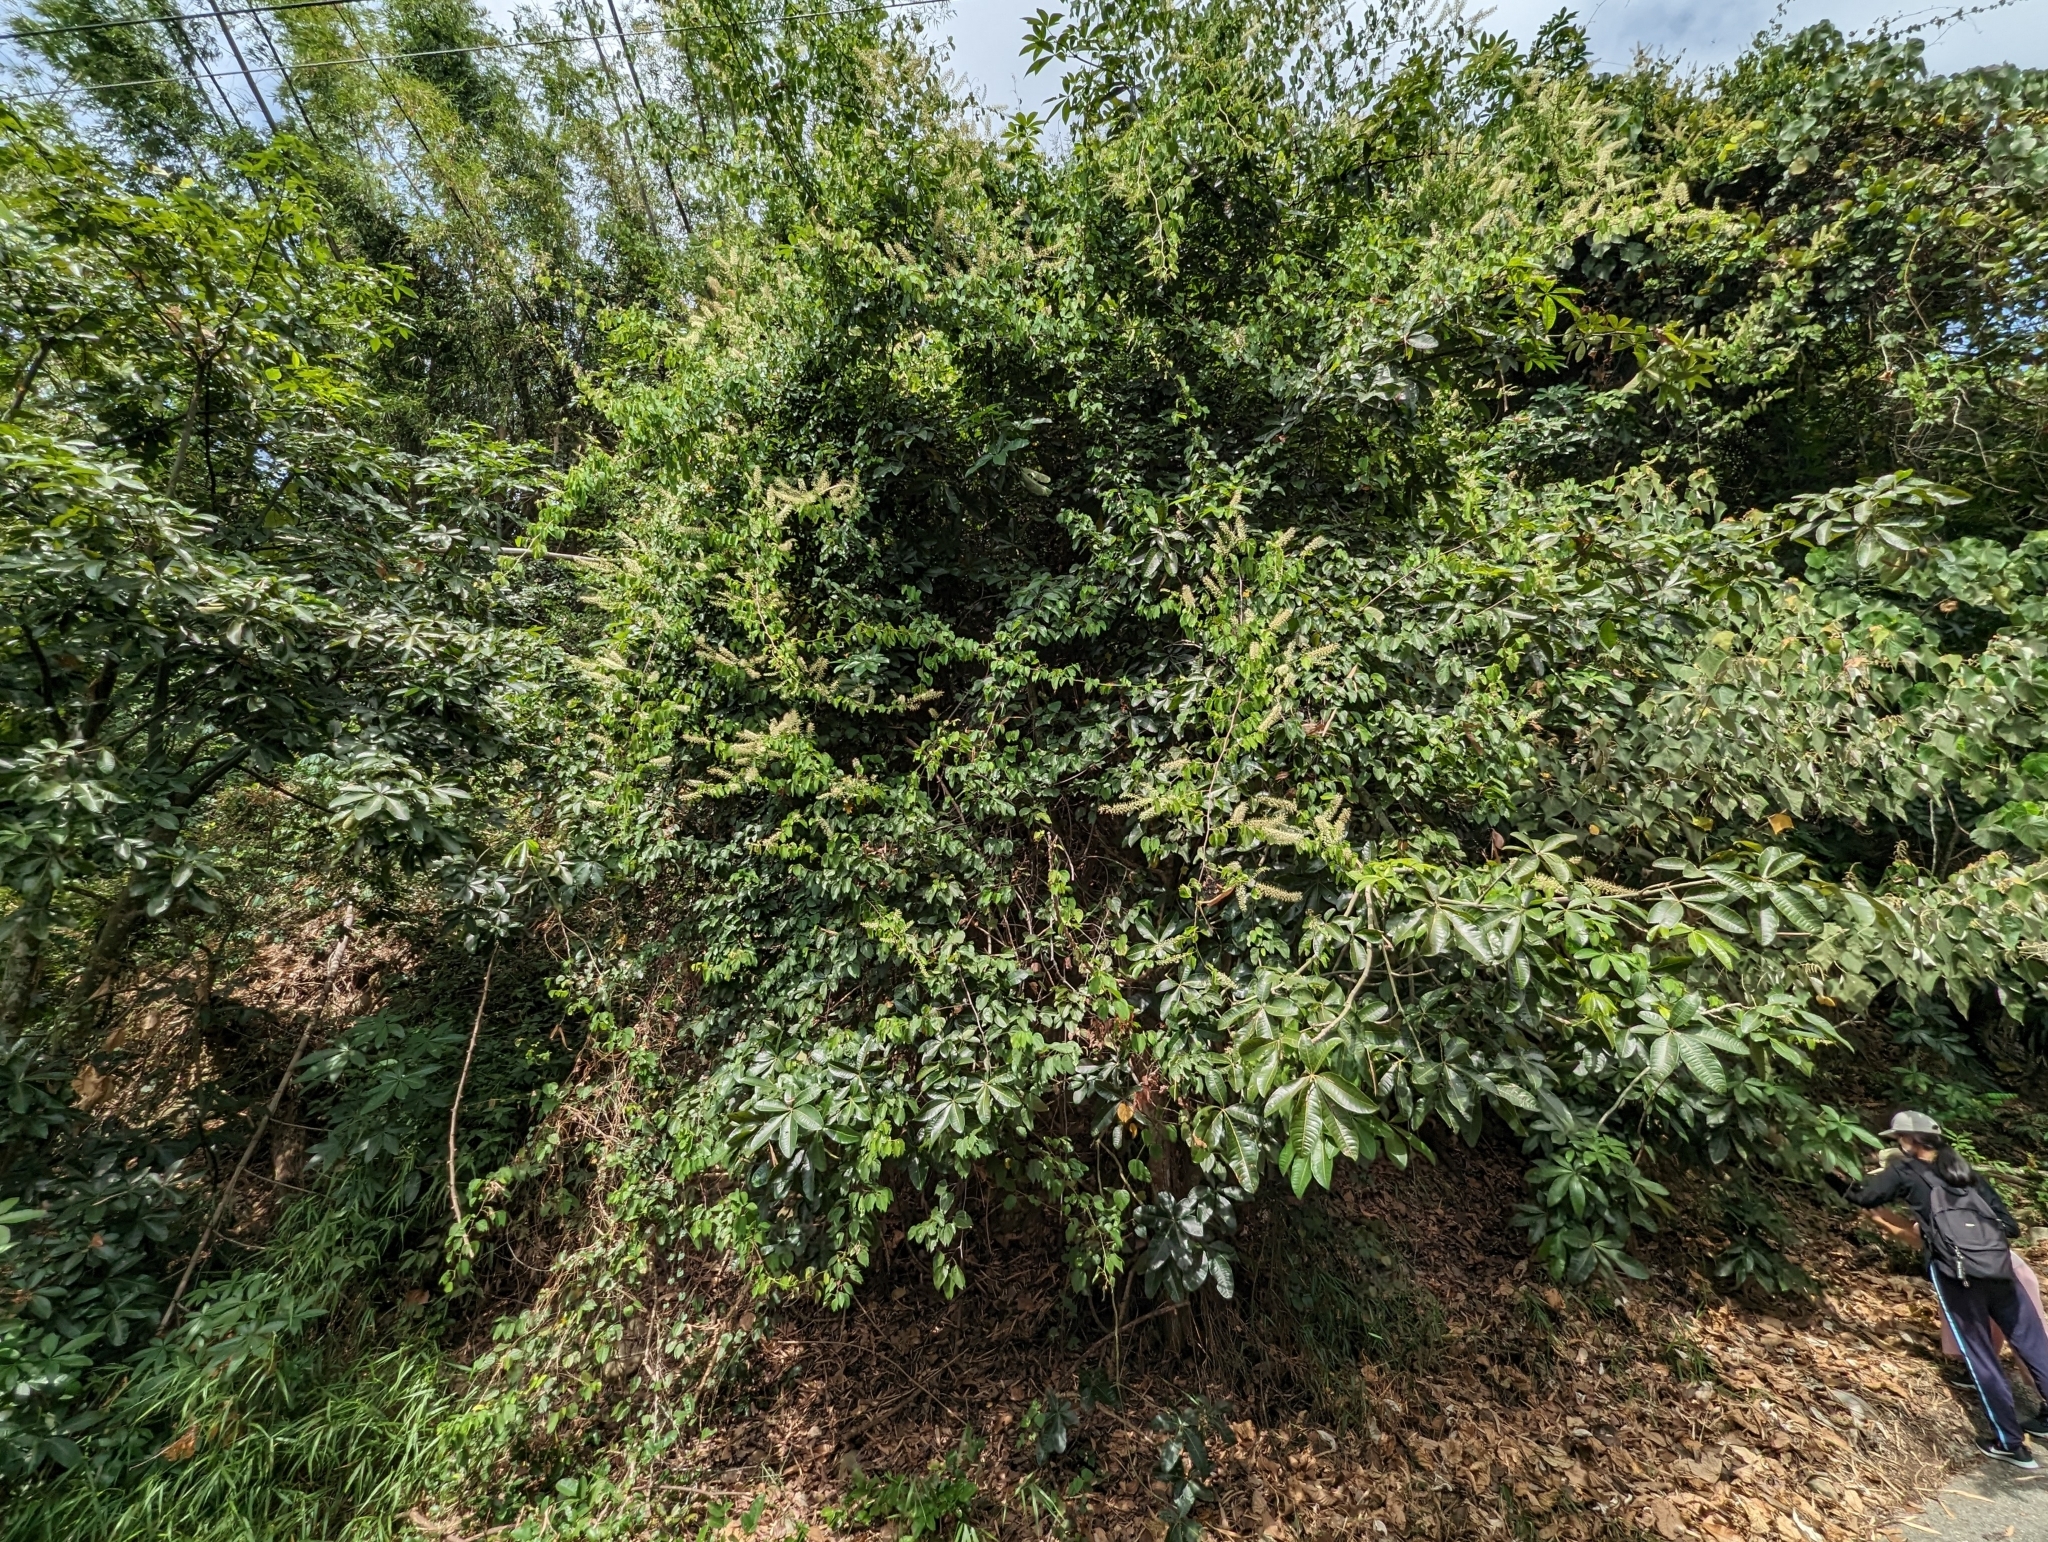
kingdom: Plantae
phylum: Tracheophyta
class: Magnoliopsida
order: Fabales
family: Fabaceae
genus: Phanera
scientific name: Phanera championii
